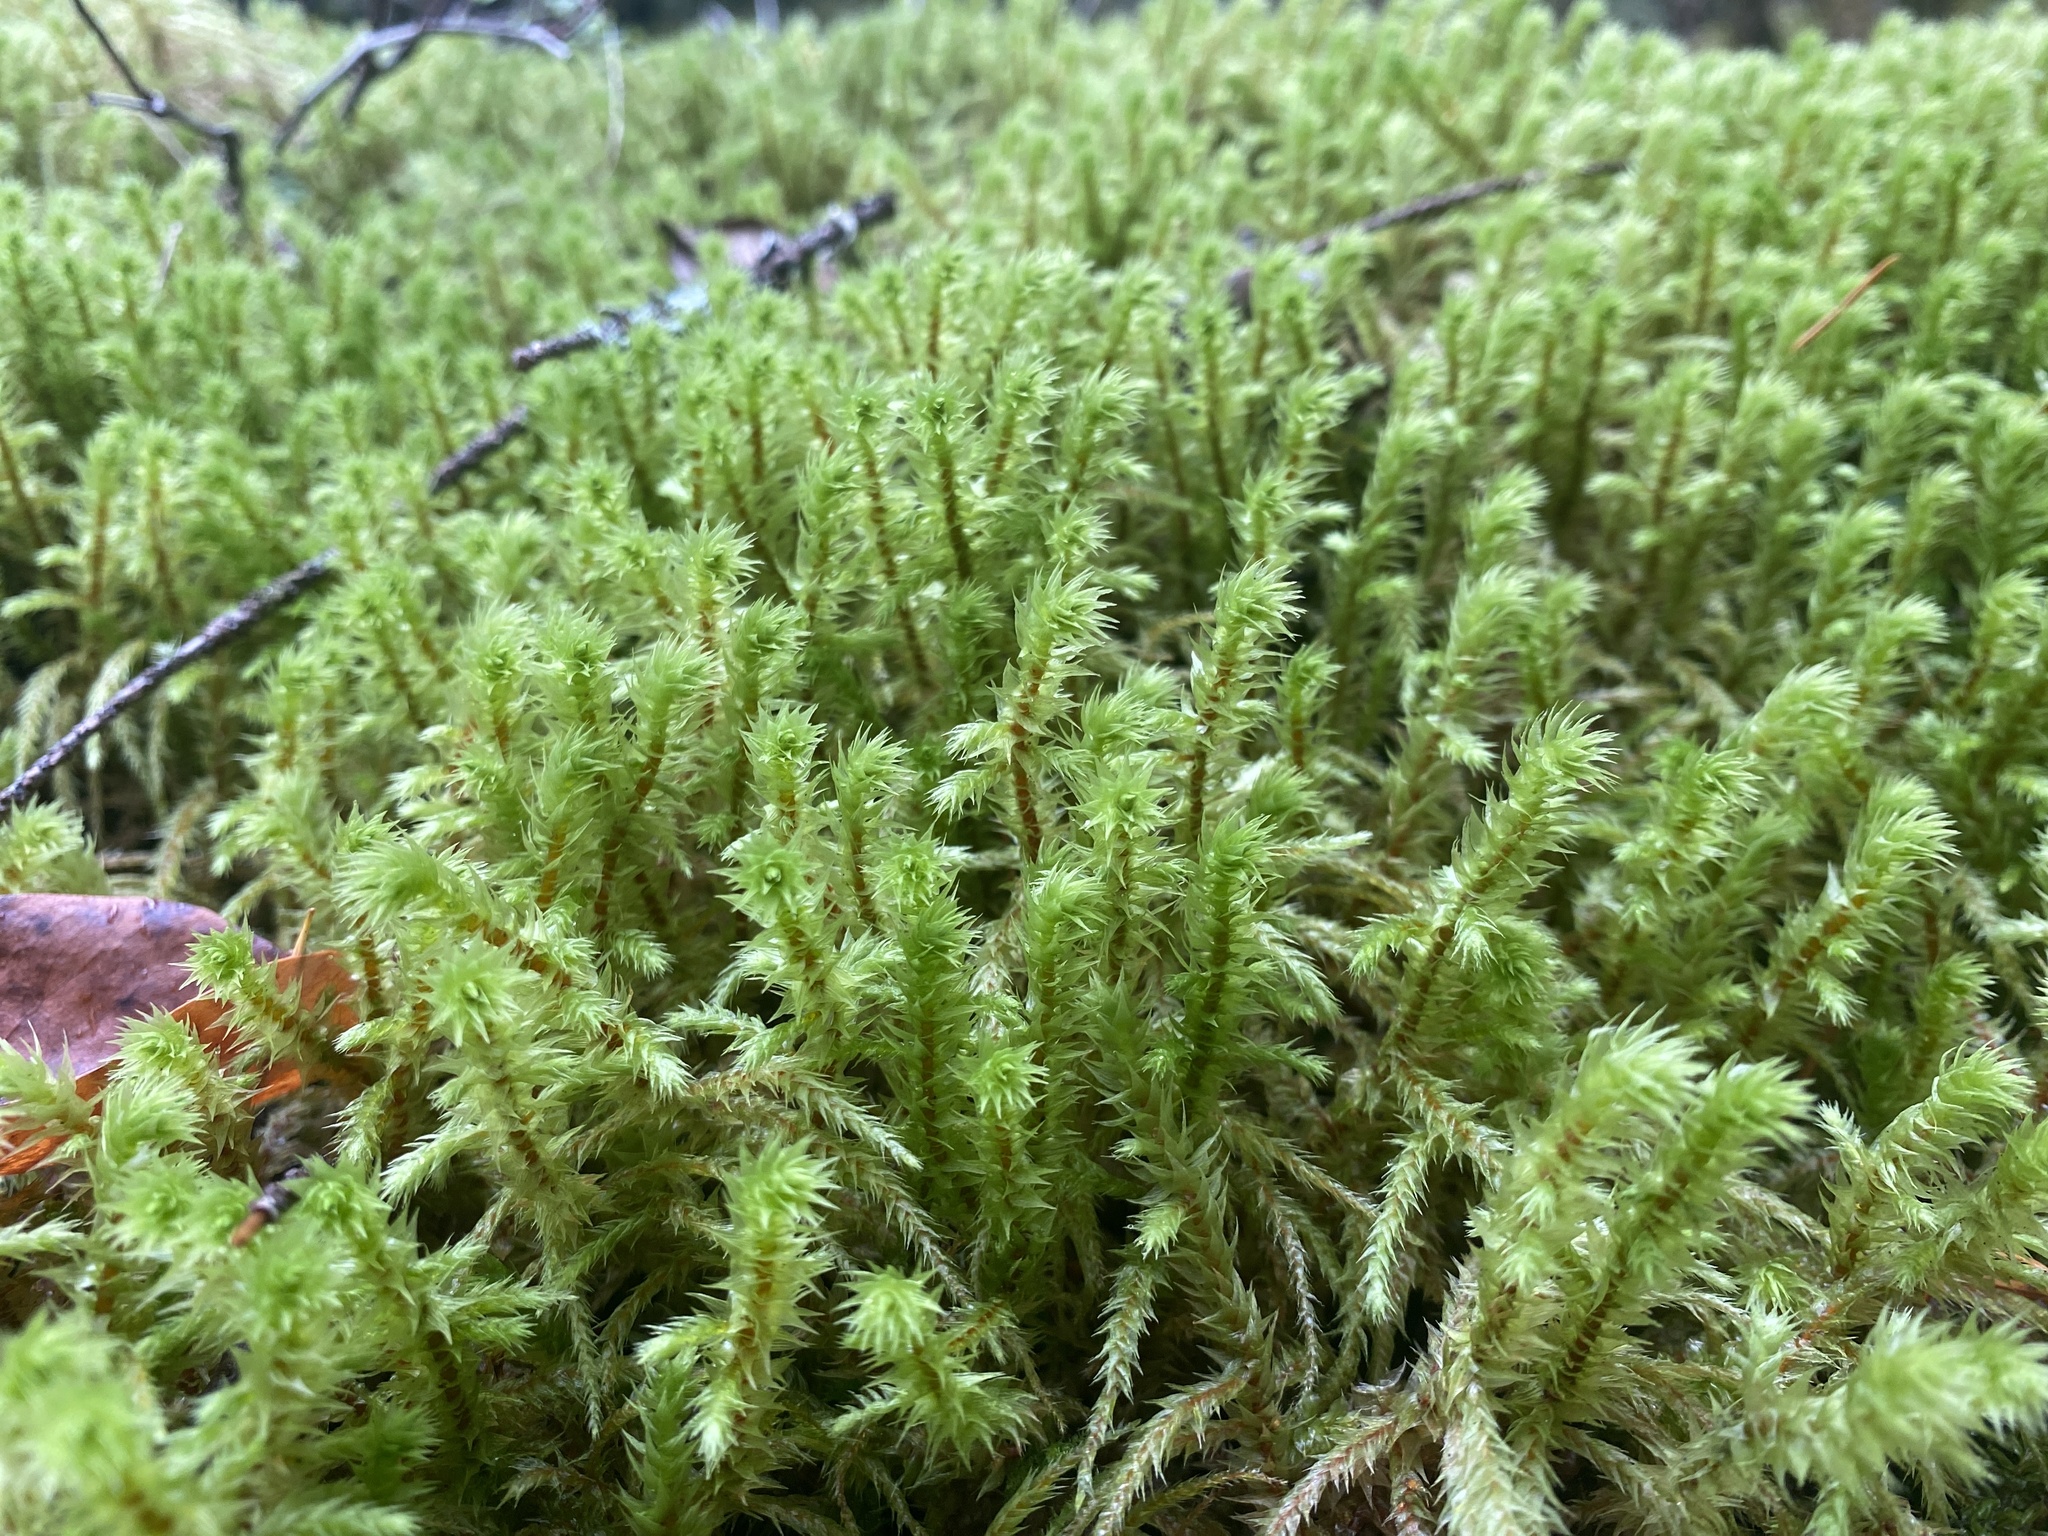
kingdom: Plantae
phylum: Bryophyta
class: Bryopsida
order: Hypnales
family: Hylocomiaceae
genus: Hylocomiadelphus
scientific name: Hylocomiadelphus triquetrus
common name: Rough goose neck moss
